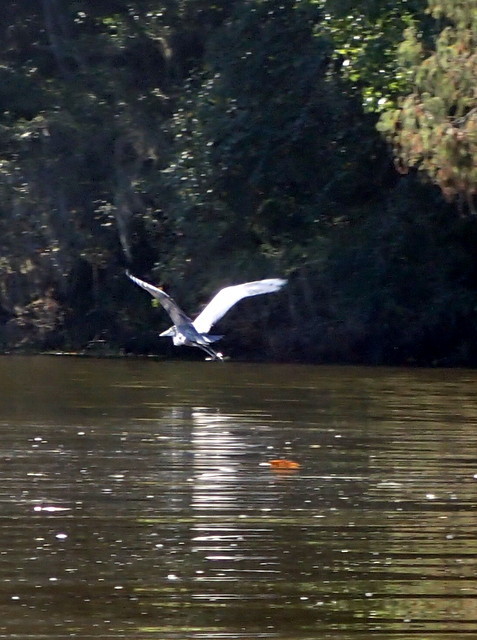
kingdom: Animalia
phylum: Chordata
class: Aves
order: Pelecaniformes
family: Ardeidae
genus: Ardea
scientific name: Ardea herodias
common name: Great blue heron
